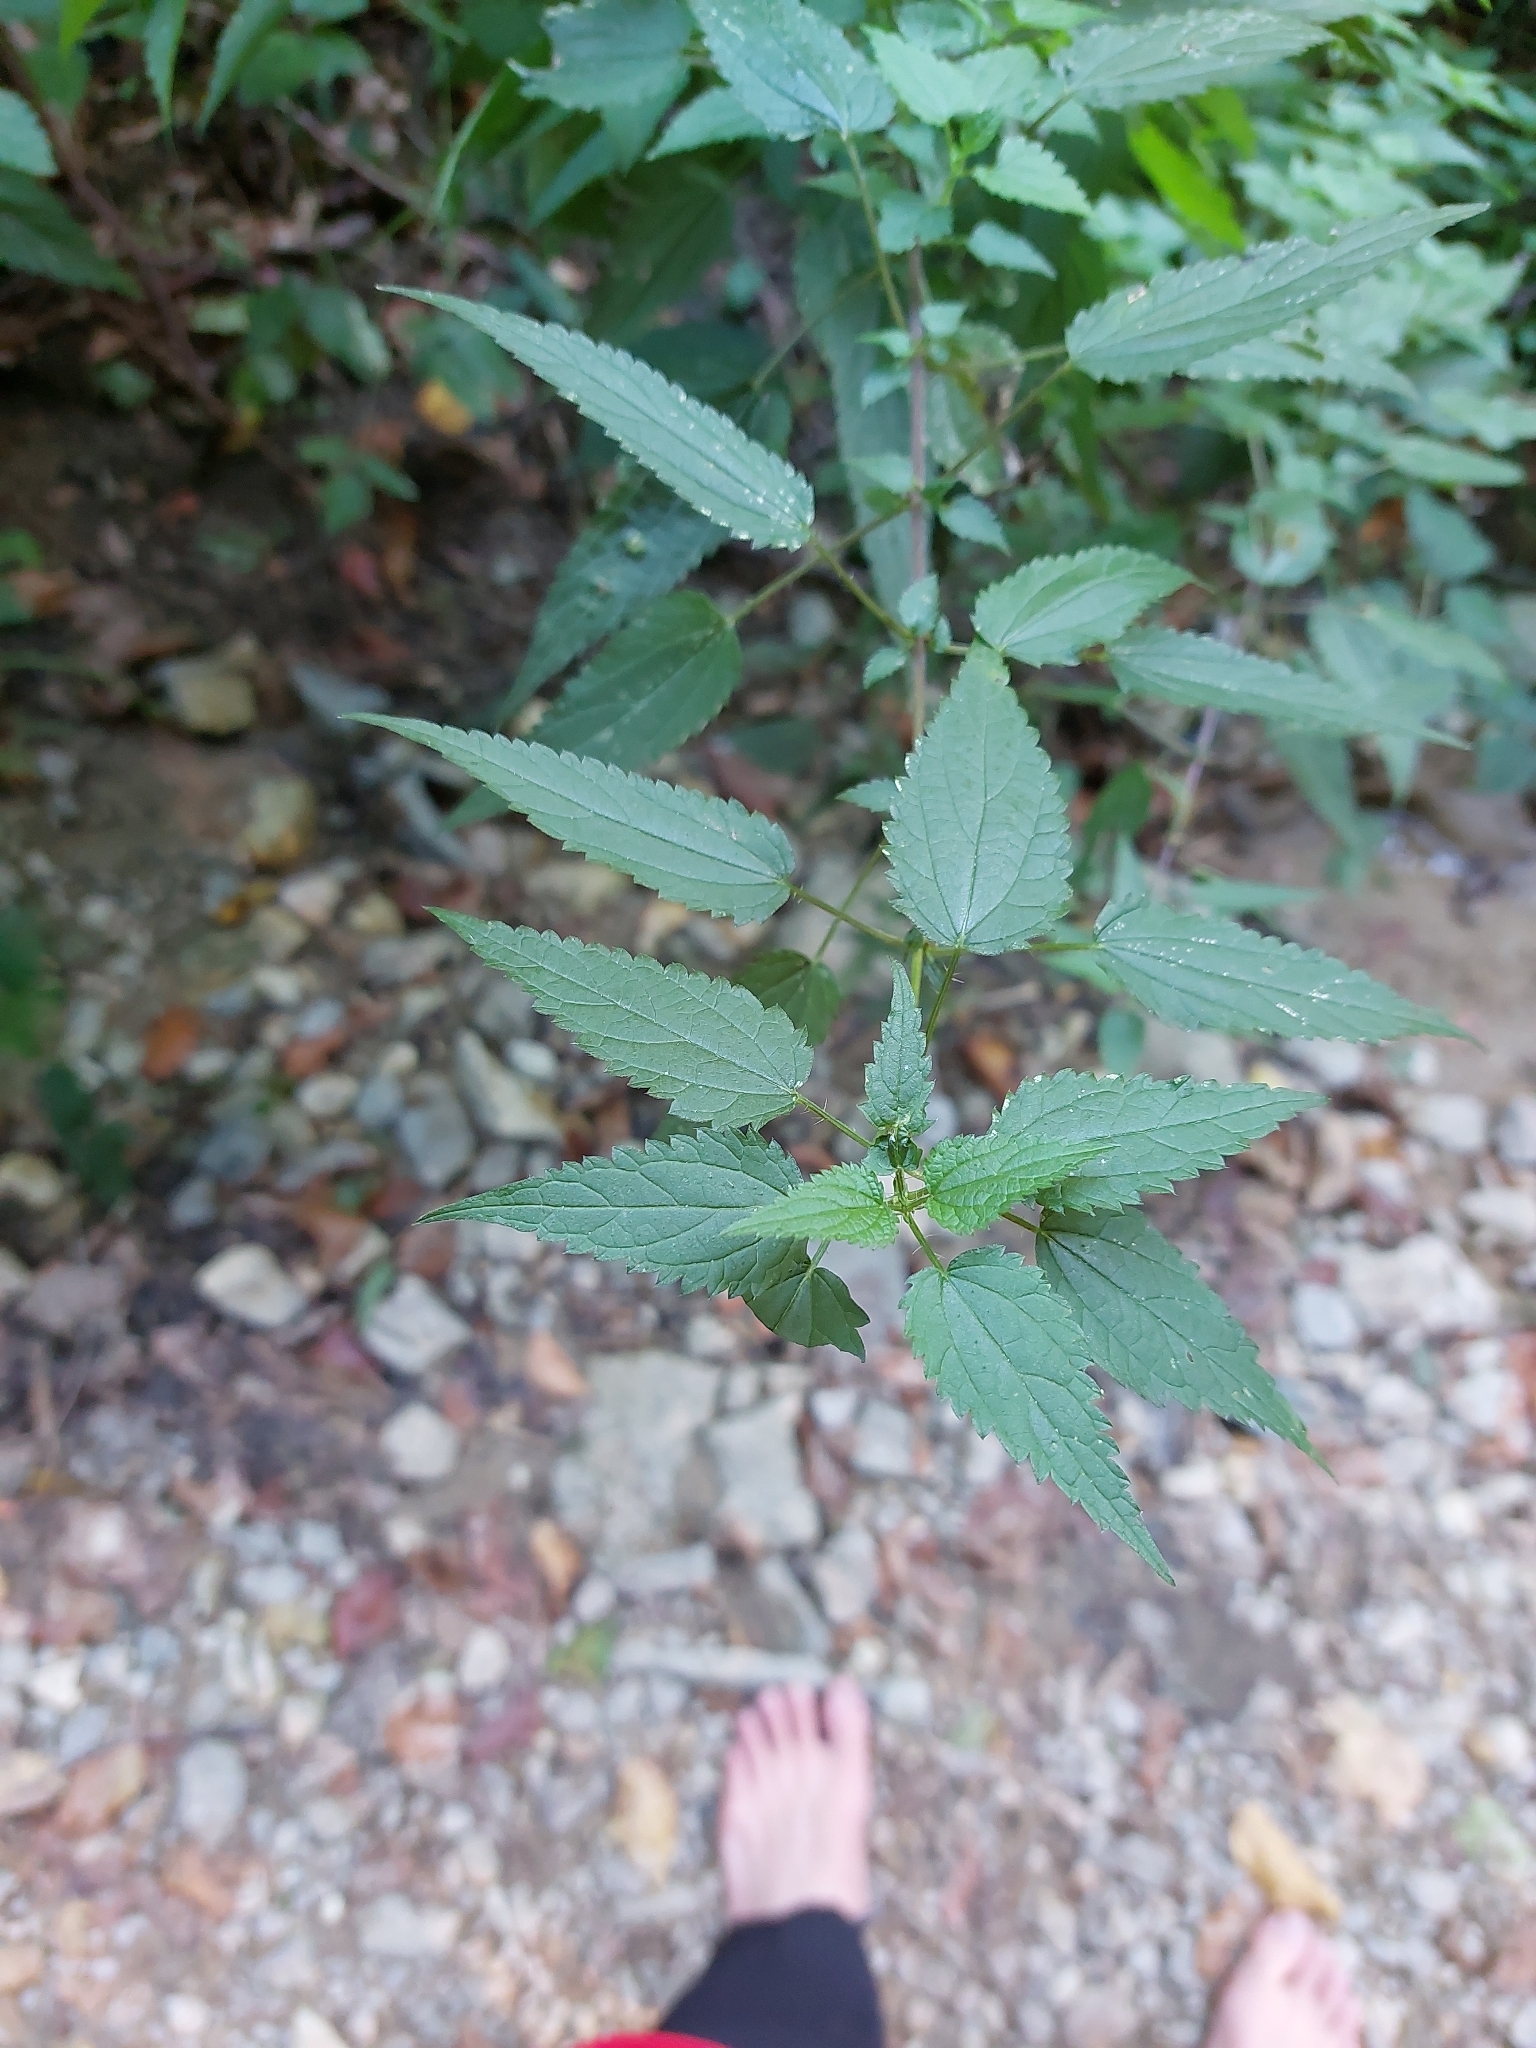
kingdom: Plantae
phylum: Tracheophyta
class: Magnoliopsida
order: Rosales
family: Urticaceae
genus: Urtica
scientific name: Urtica dioica
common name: Common nettle
